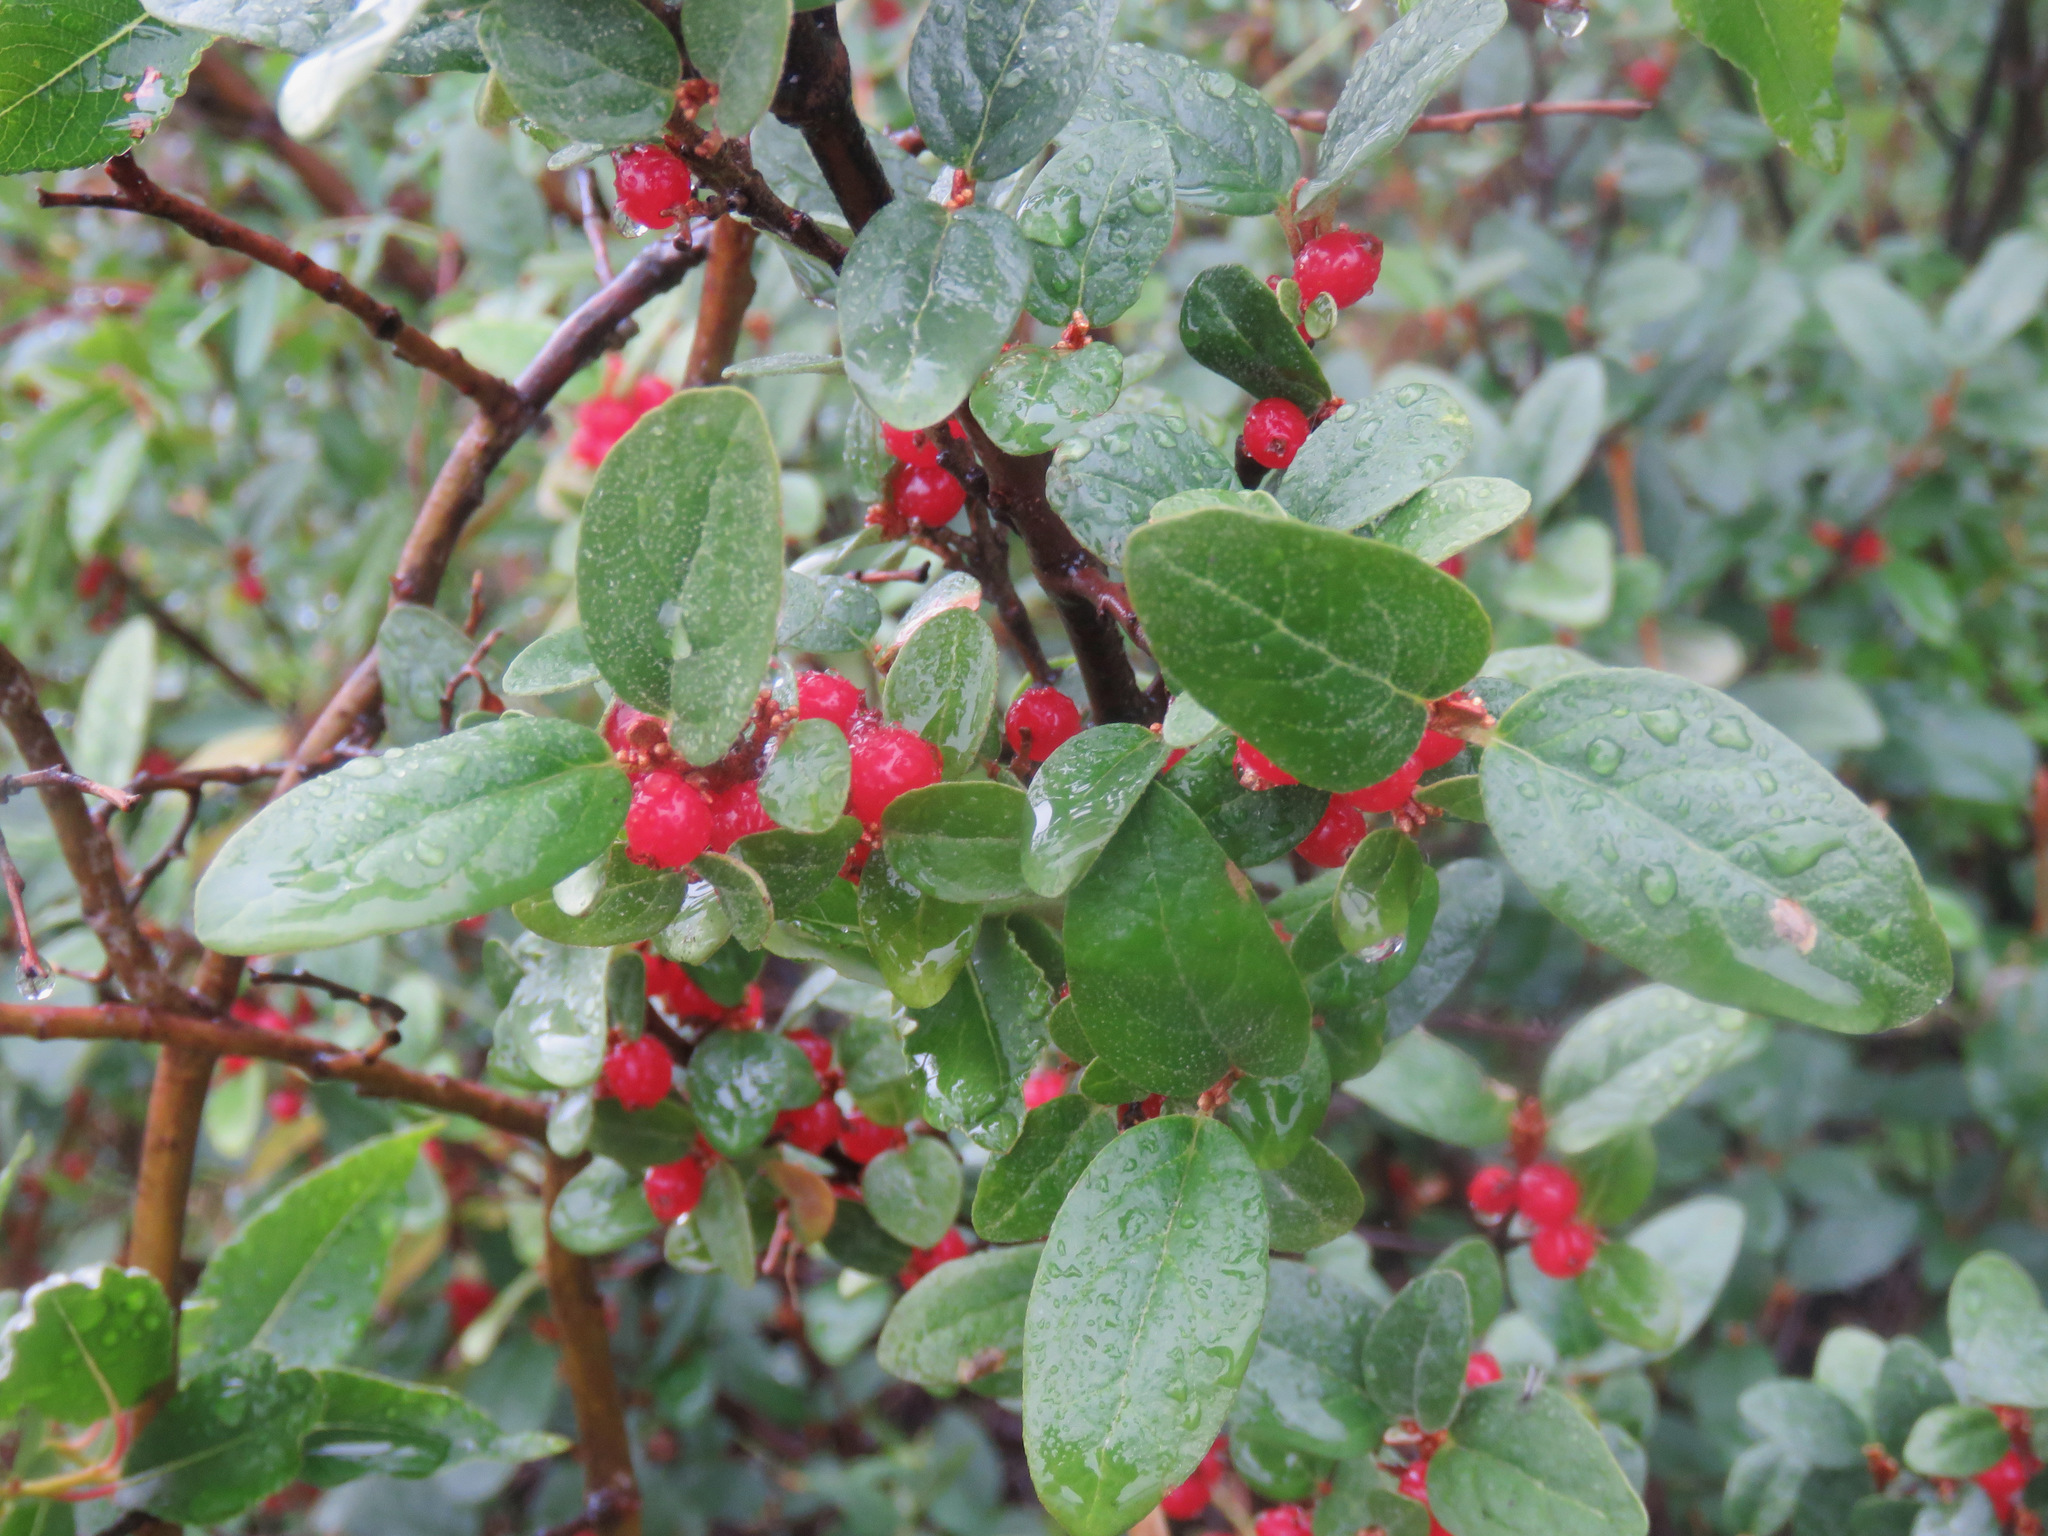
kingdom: Plantae
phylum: Tracheophyta
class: Magnoliopsida
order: Rosales
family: Elaeagnaceae
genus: Shepherdia
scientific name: Shepherdia canadensis
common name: Soapberry
